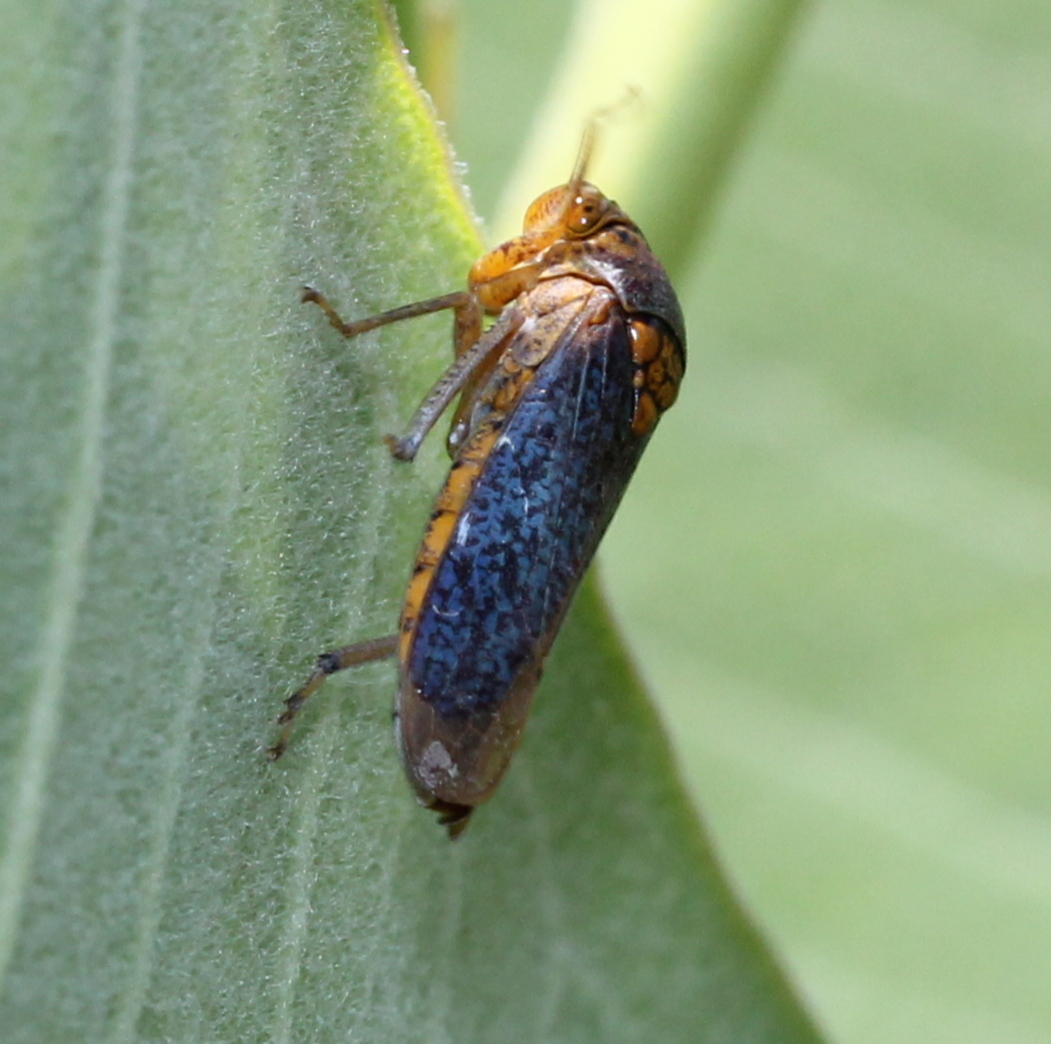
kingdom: Animalia
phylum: Arthropoda
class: Insecta
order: Hemiptera
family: Cicadellidae
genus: Oncometopia
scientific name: Oncometopia orbona
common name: Broad-headed sharpshooter
